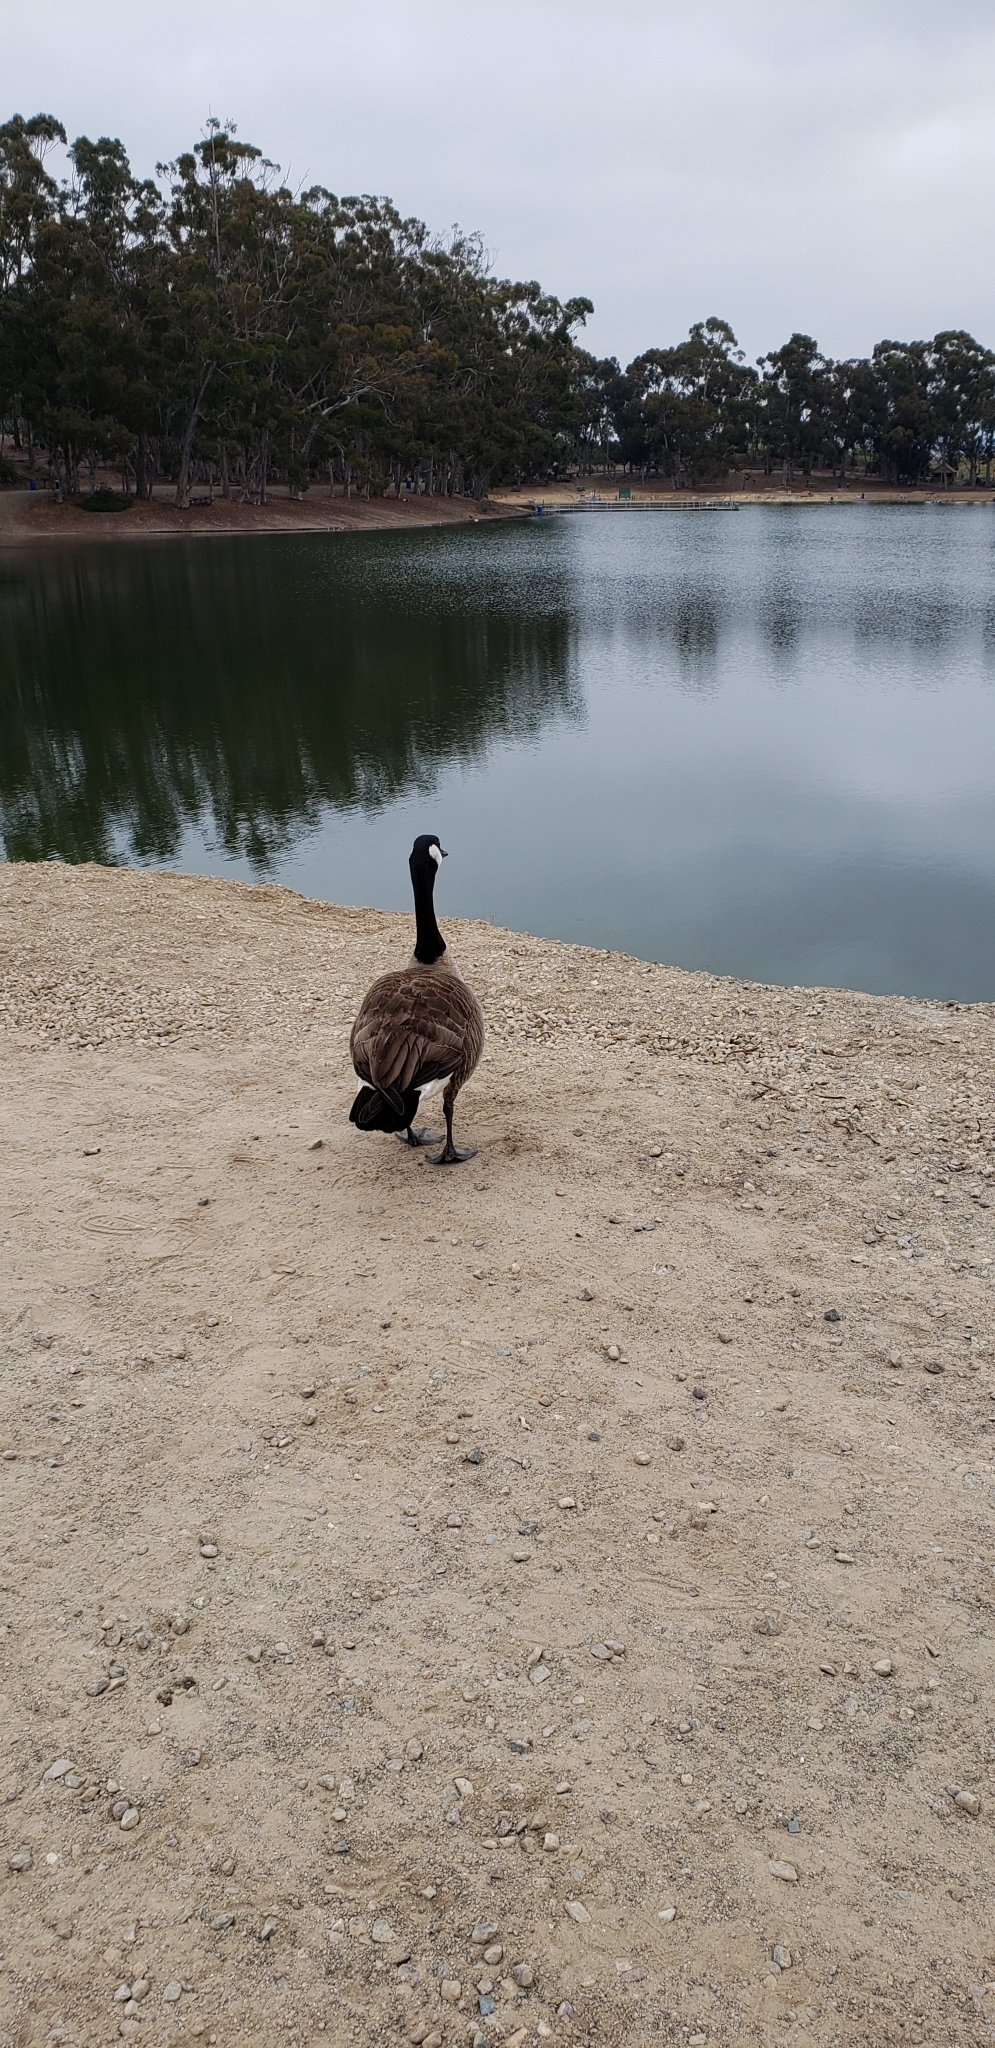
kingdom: Animalia
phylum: Chordata
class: Aves
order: Anseriformes
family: Anatidae
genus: Branta
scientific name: Branta canadensis
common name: Canada goose
